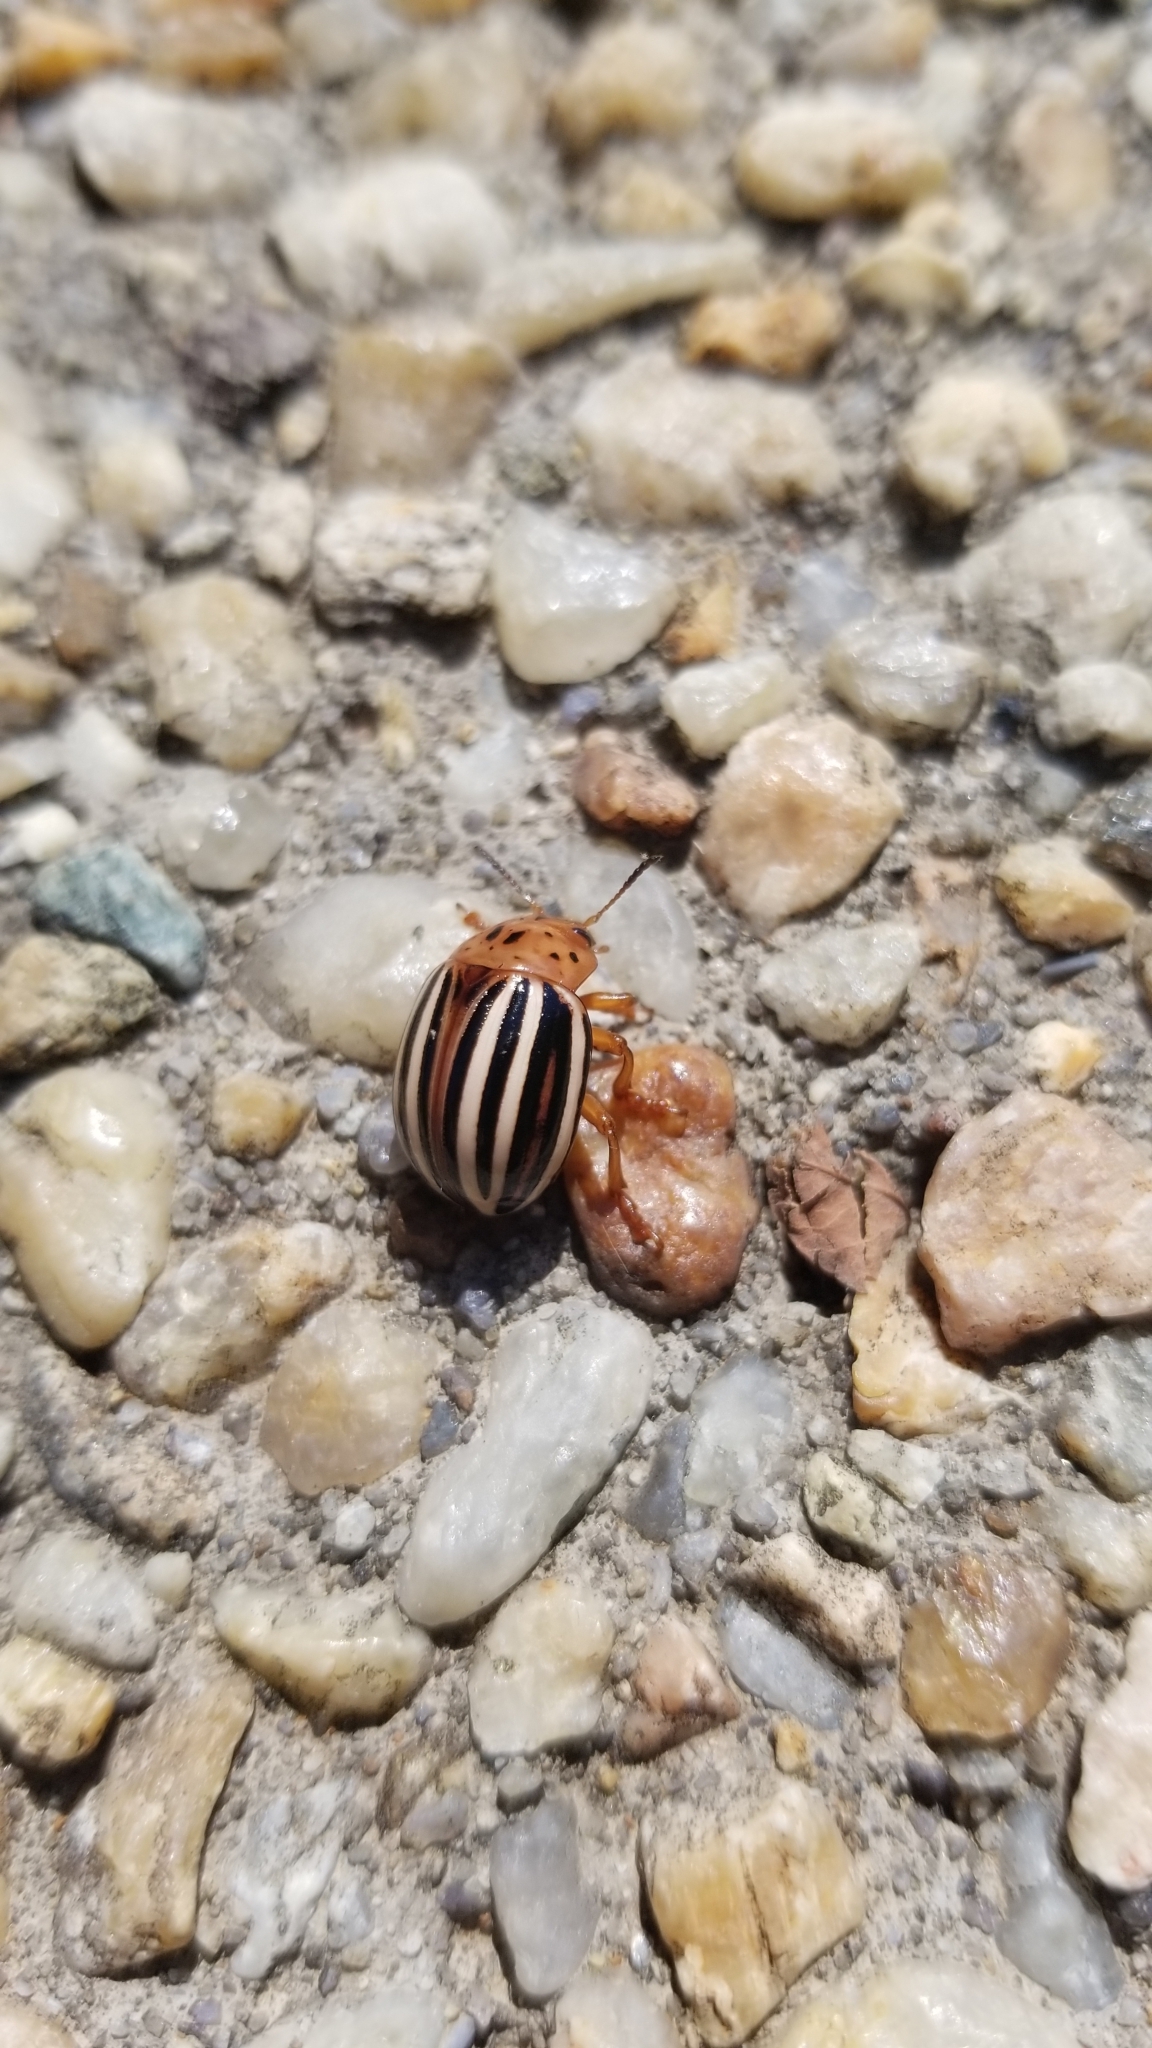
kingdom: Animalia
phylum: Arthropoda
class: Insecta
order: Coleoptera
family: Chrysomelidae
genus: Leptinotarsa
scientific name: Leptinotarsa juncta
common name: False potato beetle
